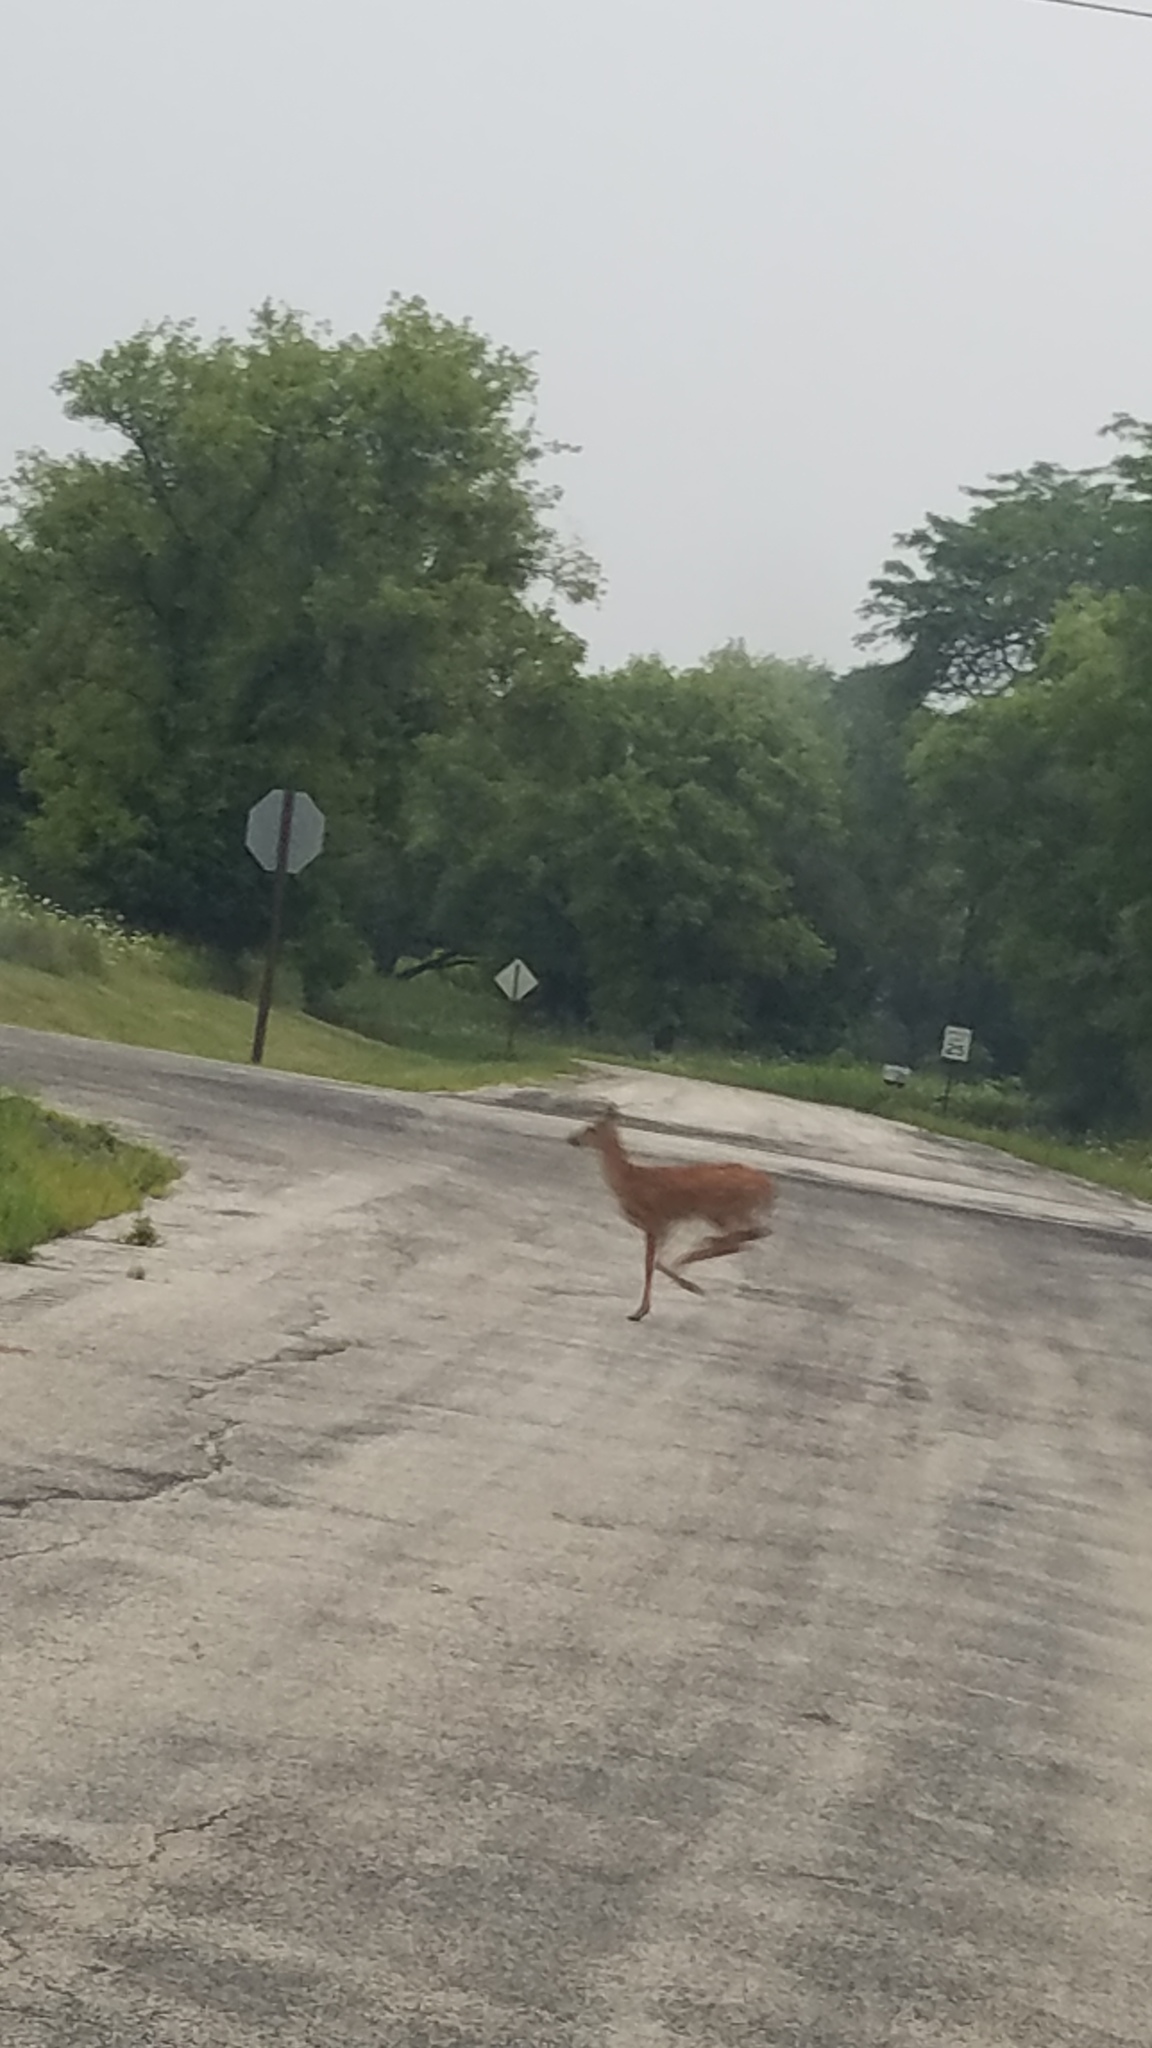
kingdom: Animalia
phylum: Chordata
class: Mammalia
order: Artiodactyla
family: Cervidae
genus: Odocoileus
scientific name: Odocoileus virginianus
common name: White-tailed deer
